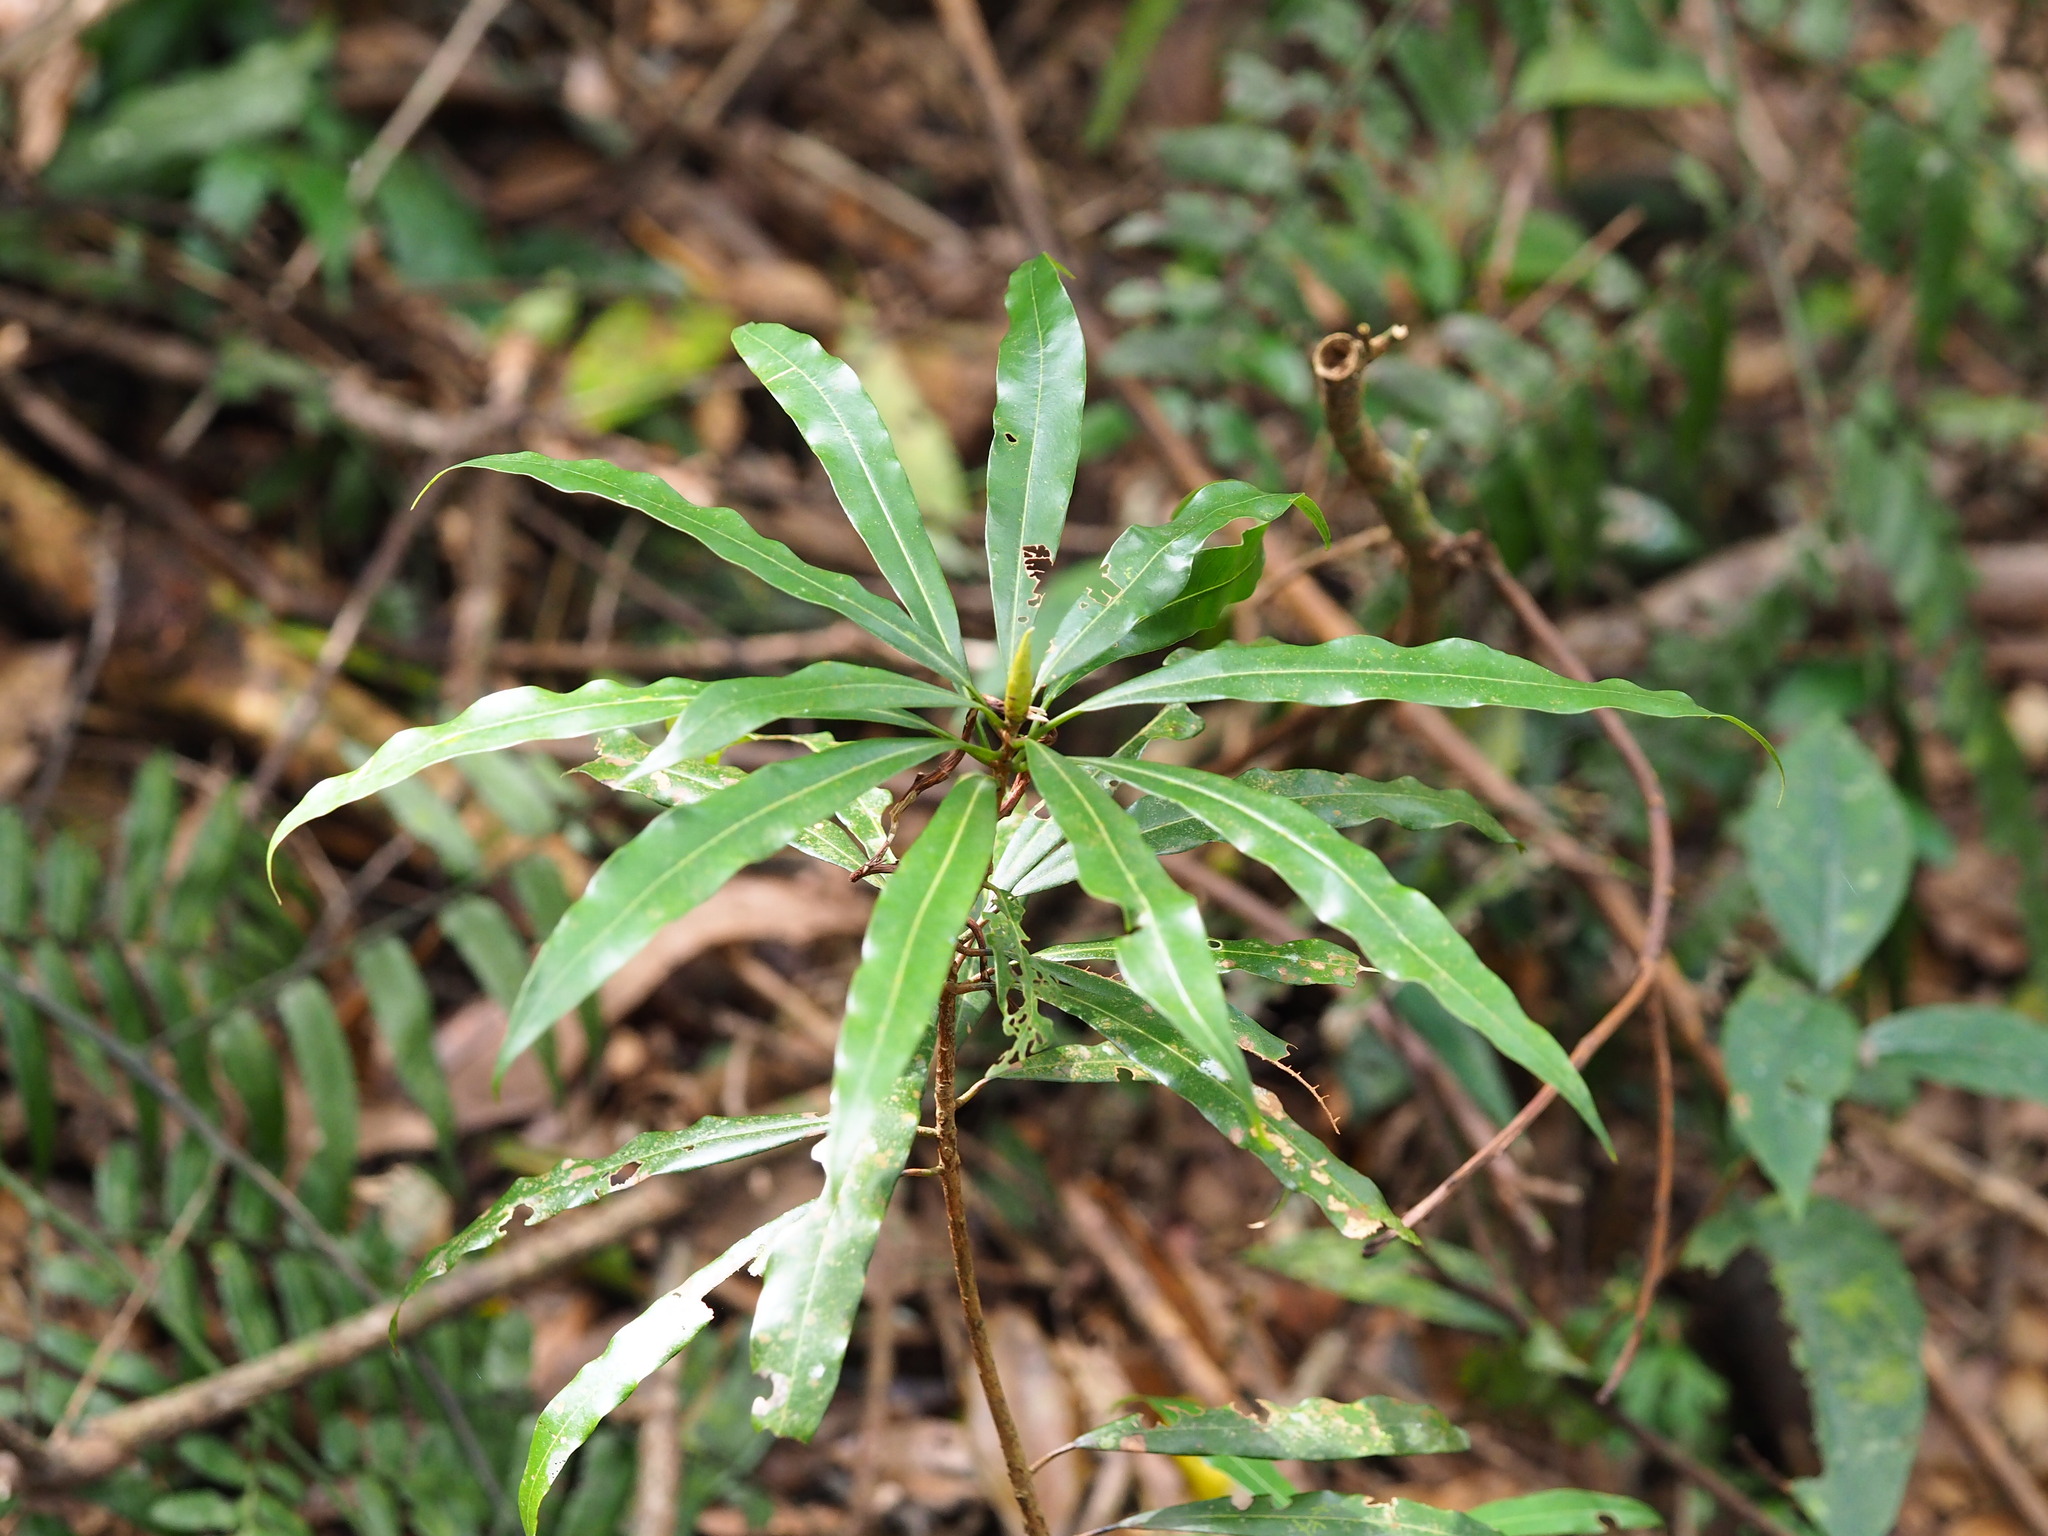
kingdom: Plantae
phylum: Tracheophyta
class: Magnoliopsida
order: Laurales
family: Lauraceae
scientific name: Lauraceae
